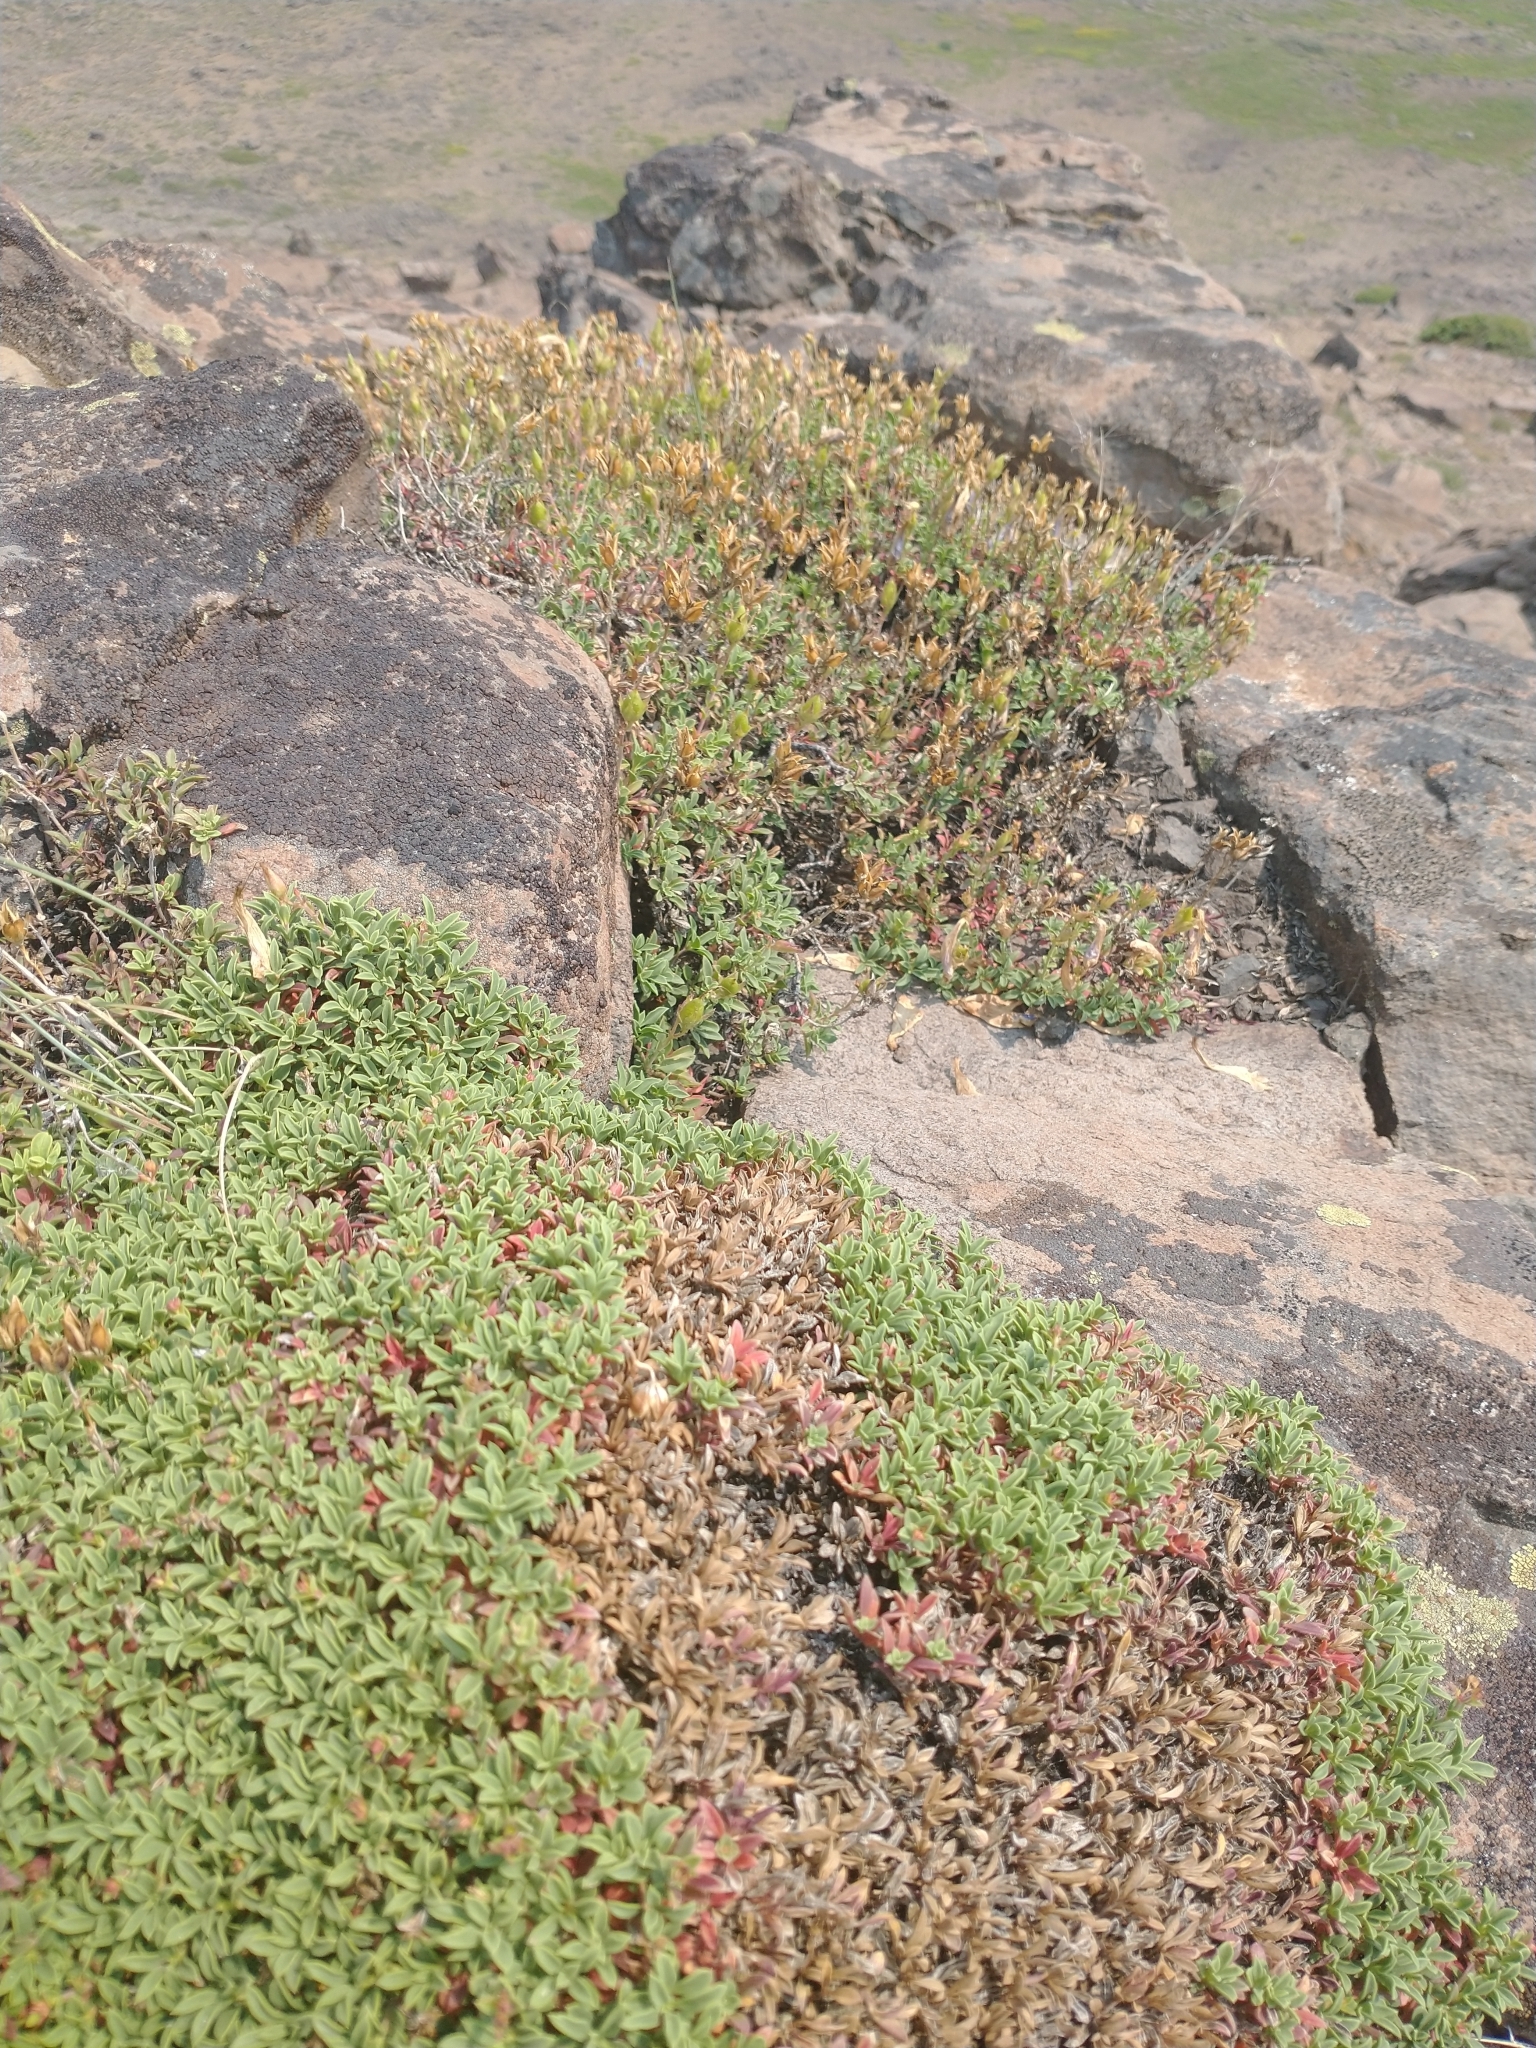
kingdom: Plantae
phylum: Tracheophyta
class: Magnoliopsida
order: Lamiales
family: Plantaginaceae
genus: Penstemon
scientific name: Penstemon davidsonii
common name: Davidson's penstemon
